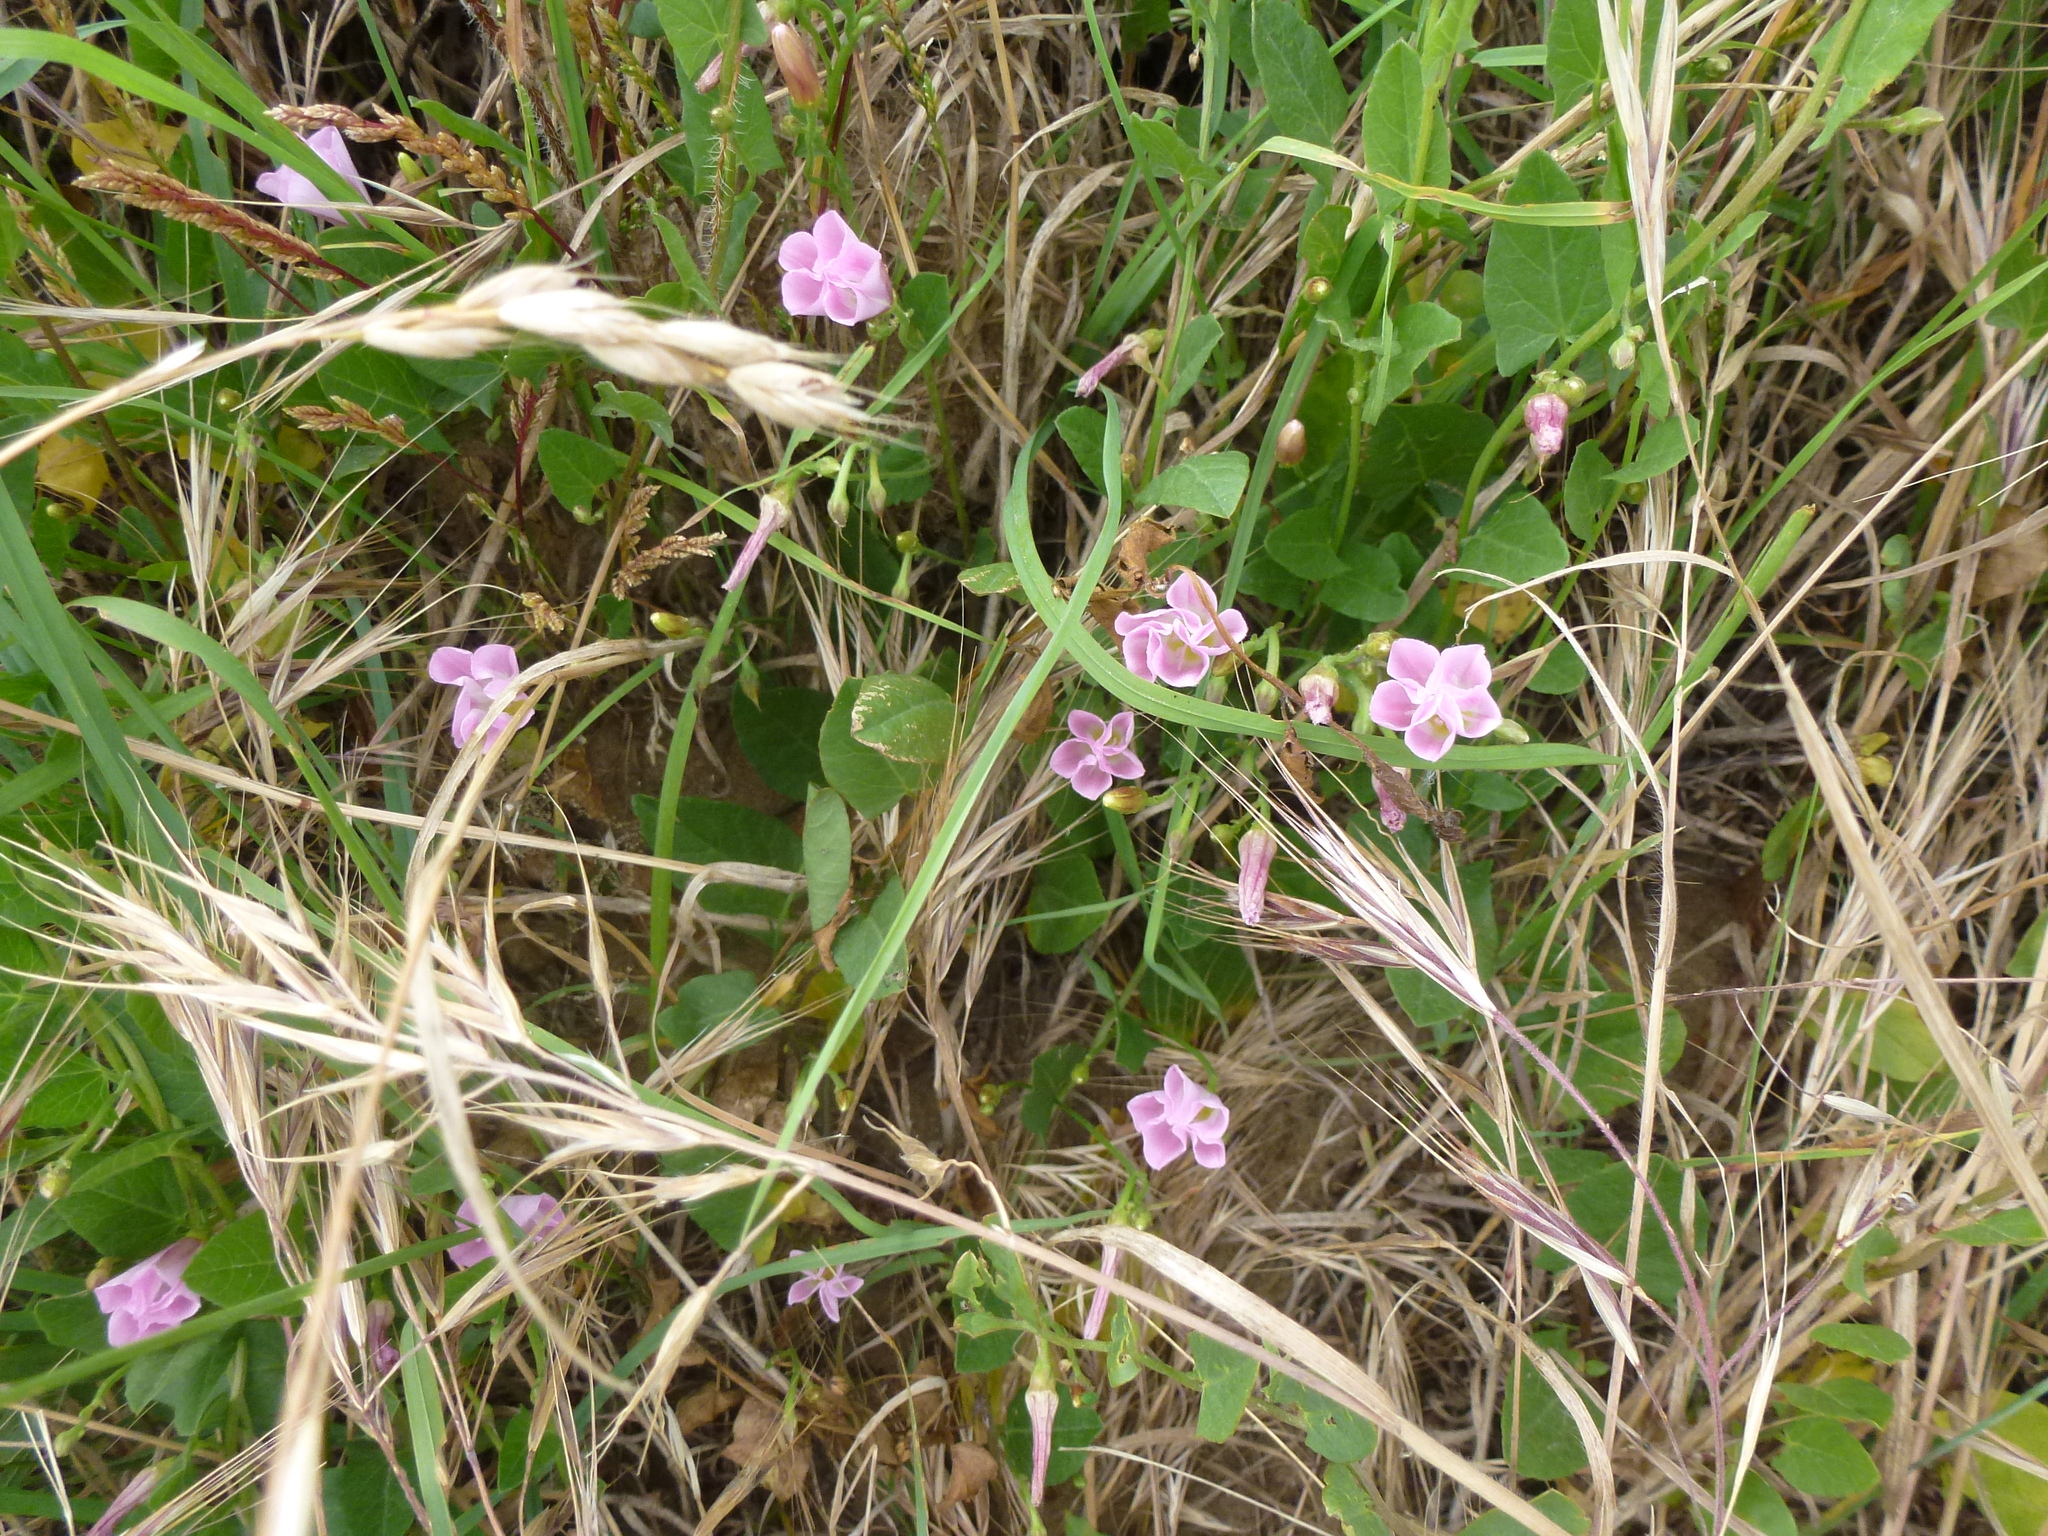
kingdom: Plantae
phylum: Tracheophyta
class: Magnoliopsida
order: Solanales
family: Convolvulaceae
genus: Convolvulus
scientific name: Convolvulus arvensis
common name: Field bindweed
